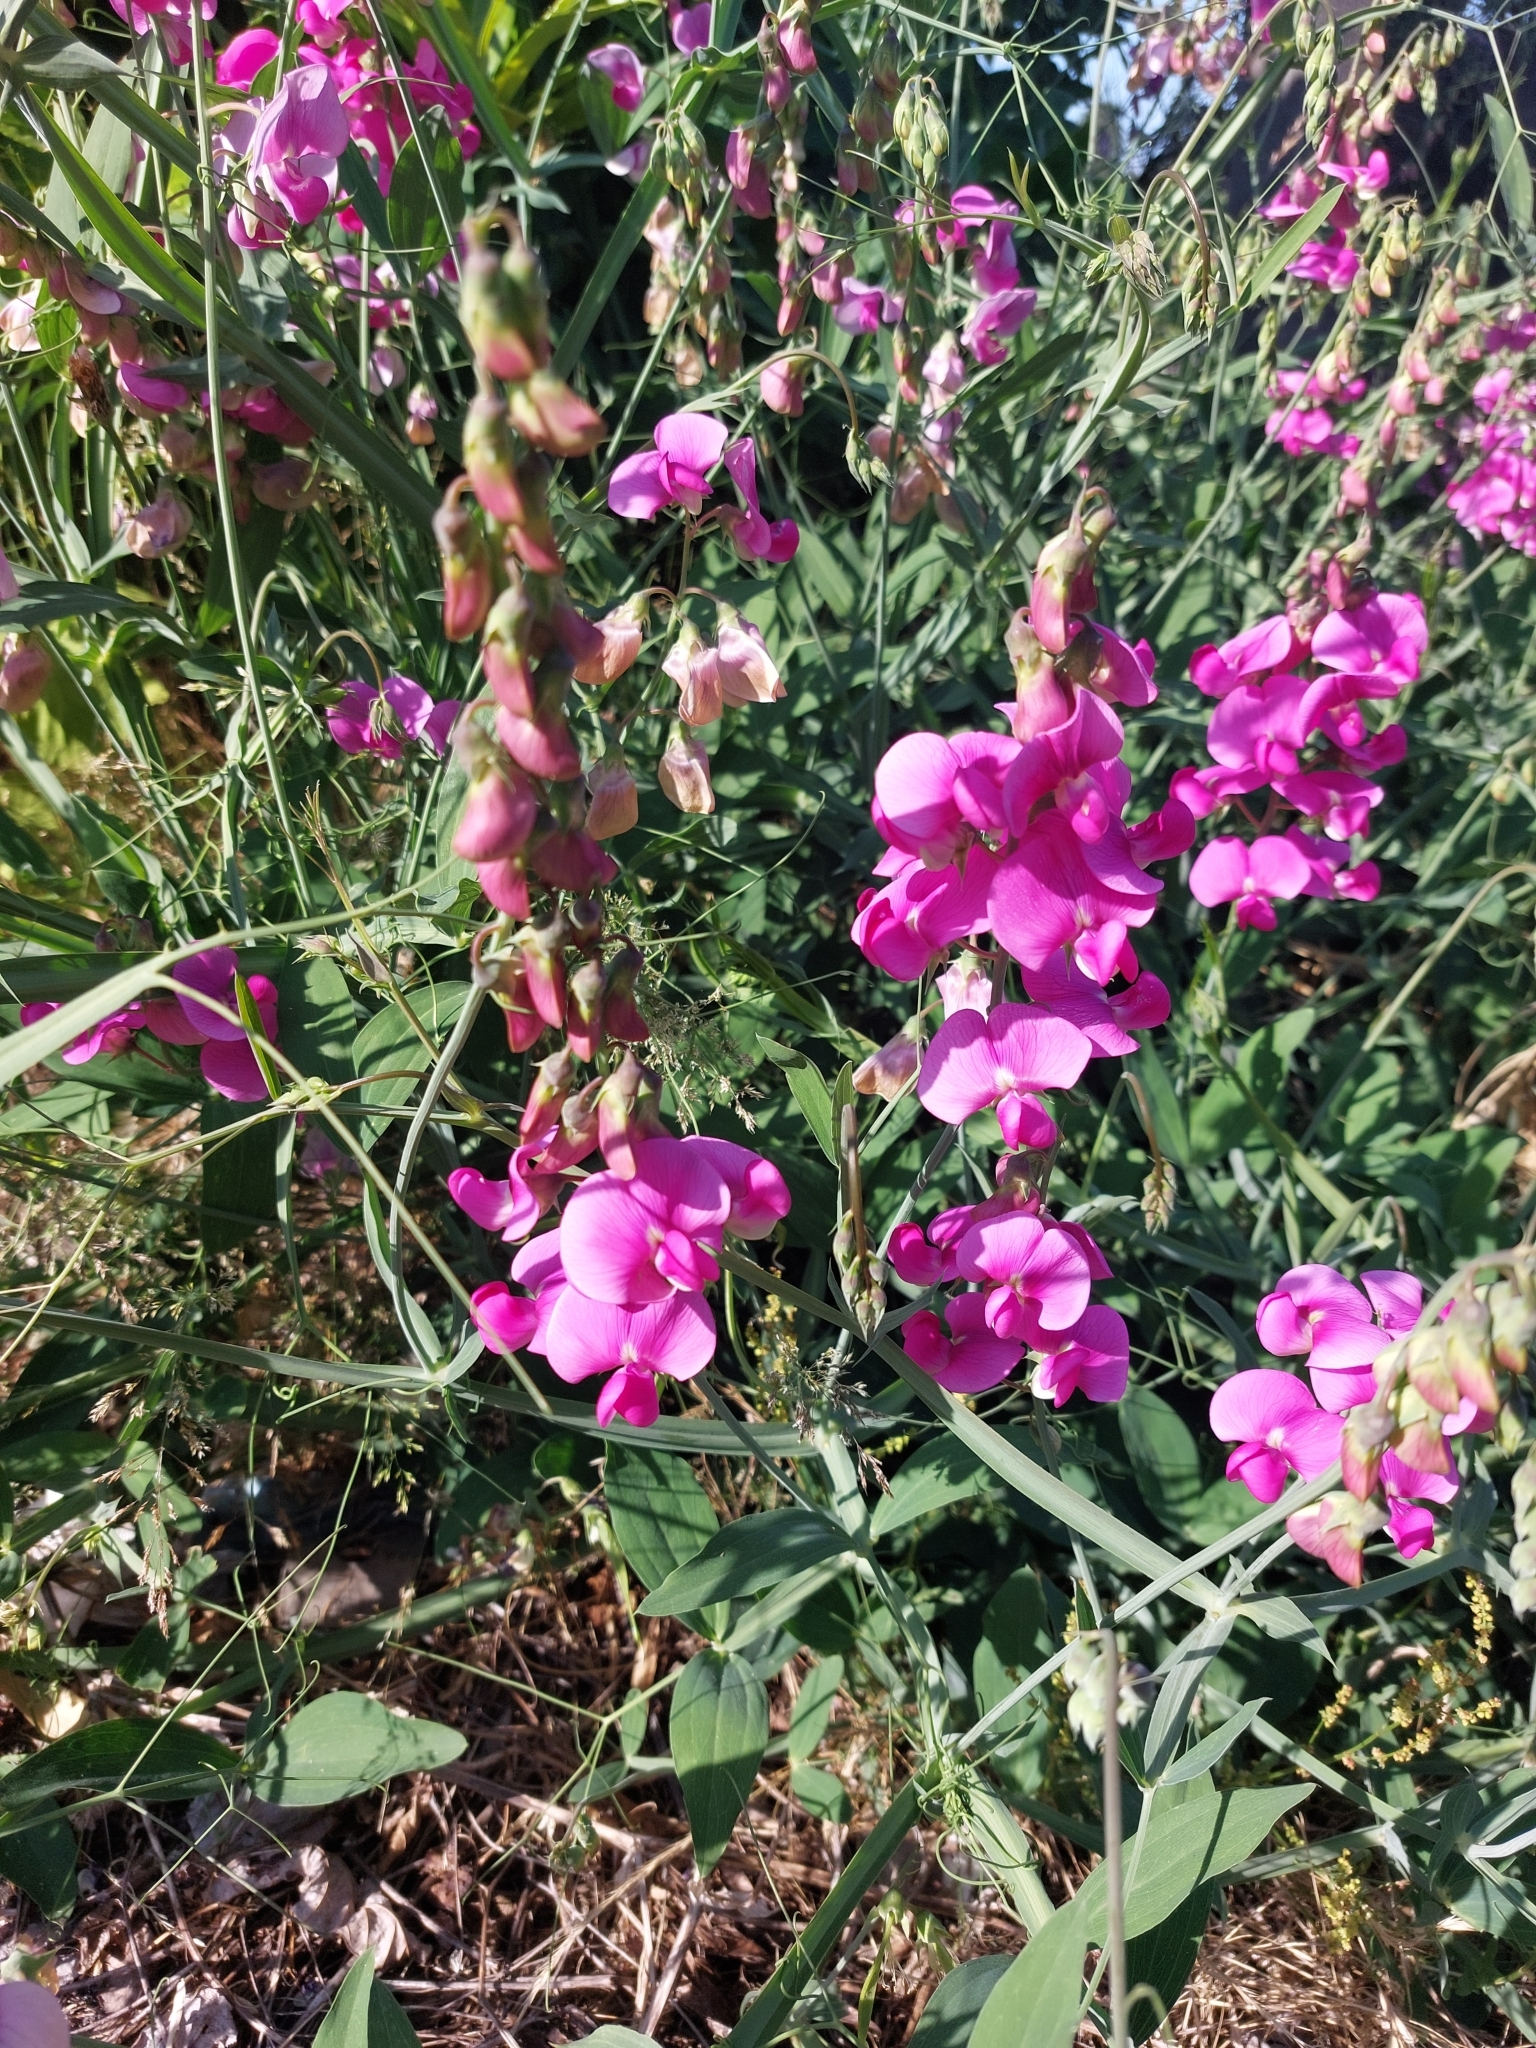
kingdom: Plantae
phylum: Tracheophyta
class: Magnoliopsida
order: Fabales
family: Fabaceae
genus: Lathyrus
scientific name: Lathyrus latifolius
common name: Perennial pea
